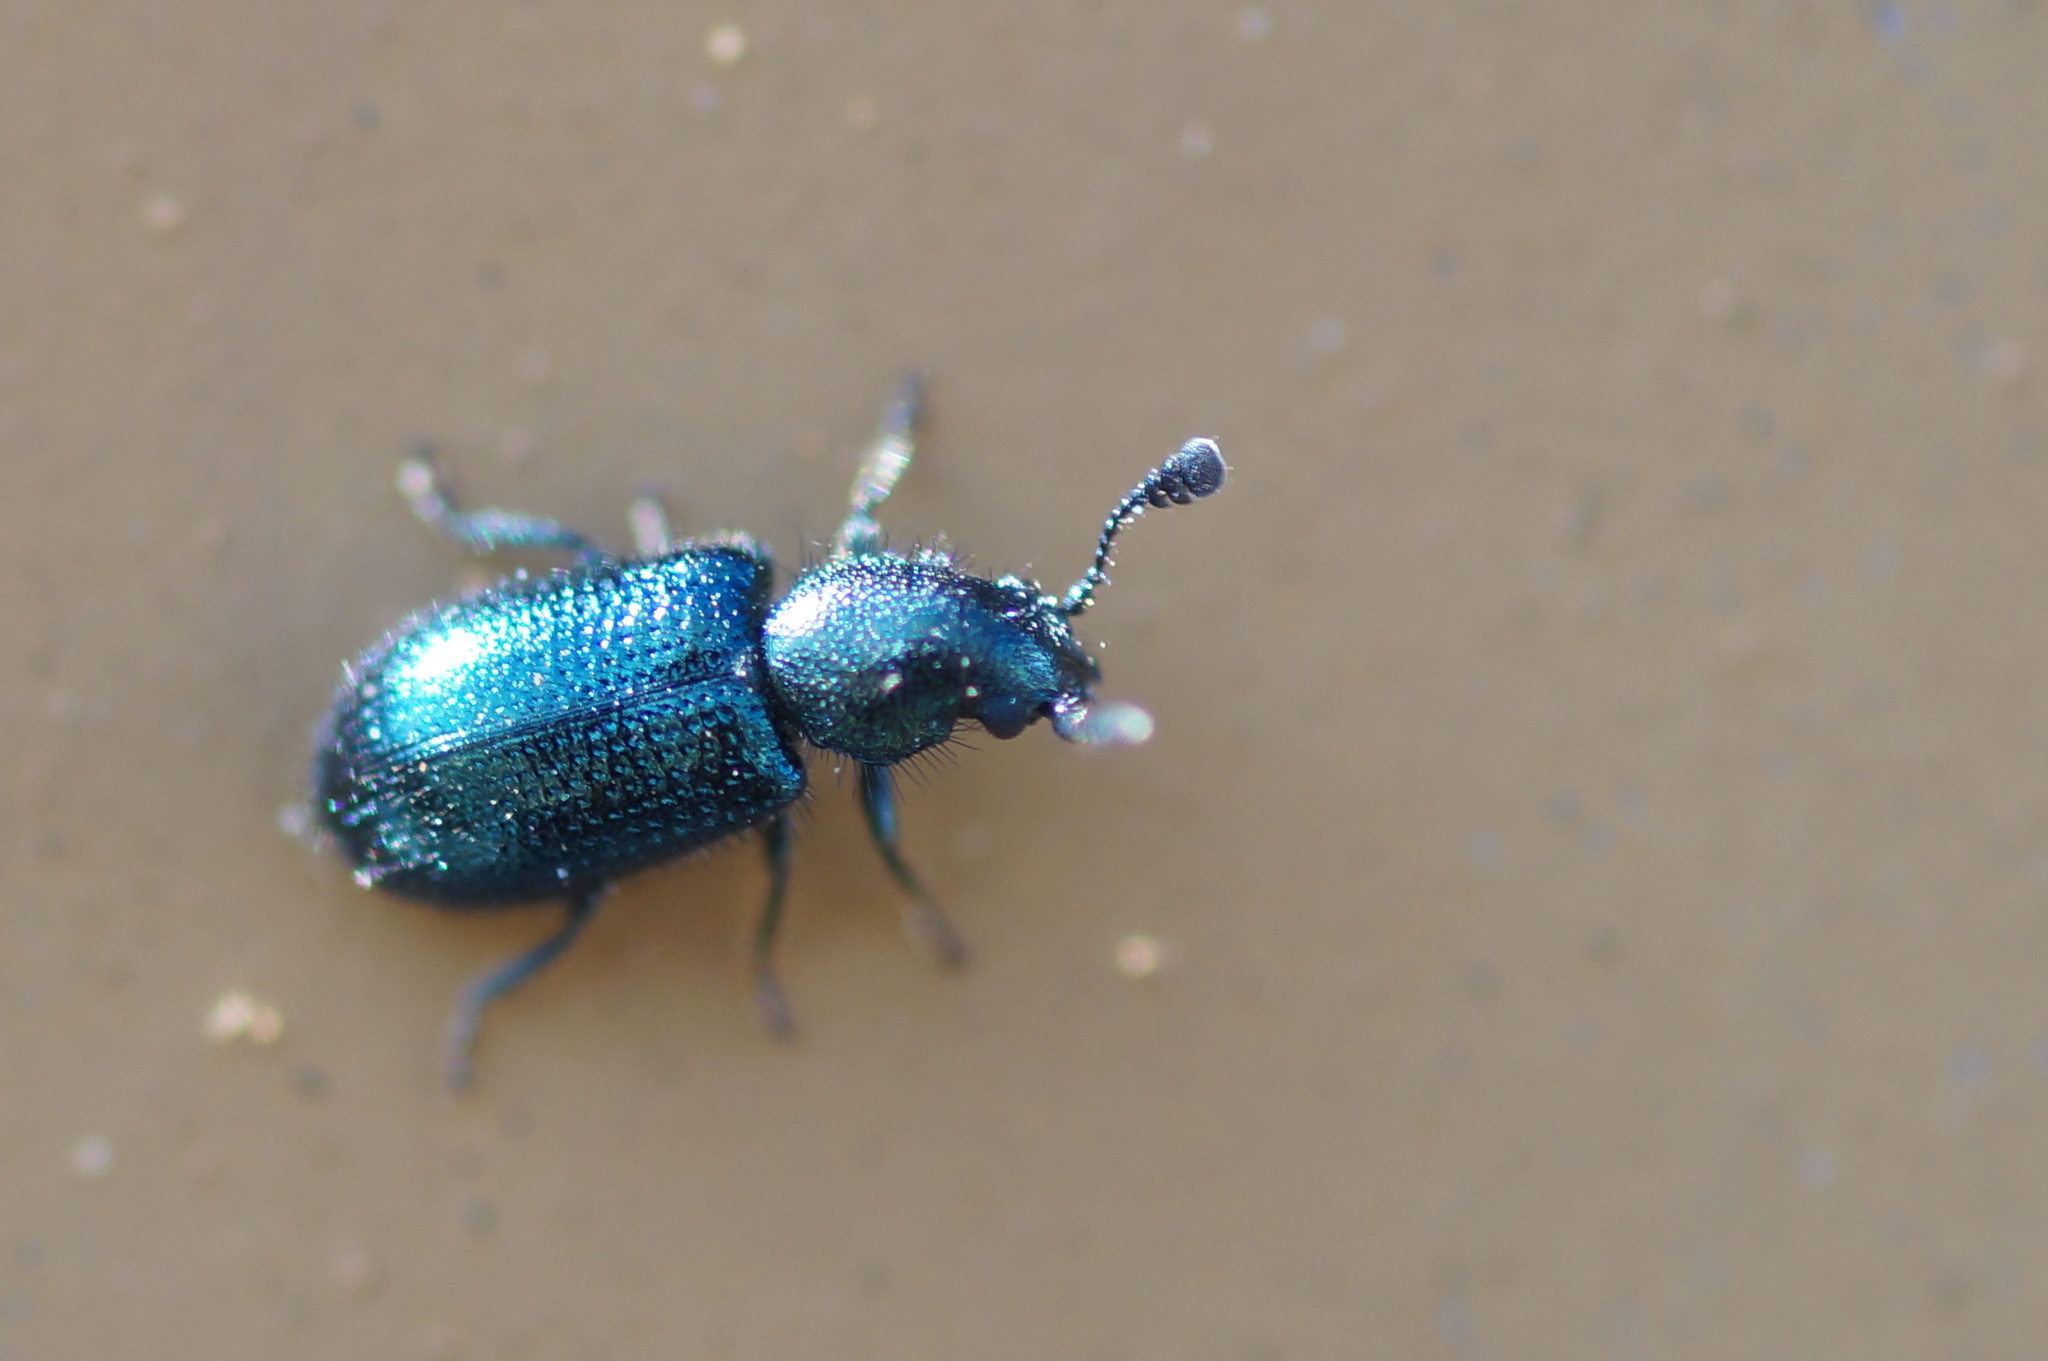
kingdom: Animalia
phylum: Arthropoda
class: Insecta
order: Coleoptera
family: Cleridae
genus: Necrobia
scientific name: Necrobia violacea
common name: Violet checkered beetle
